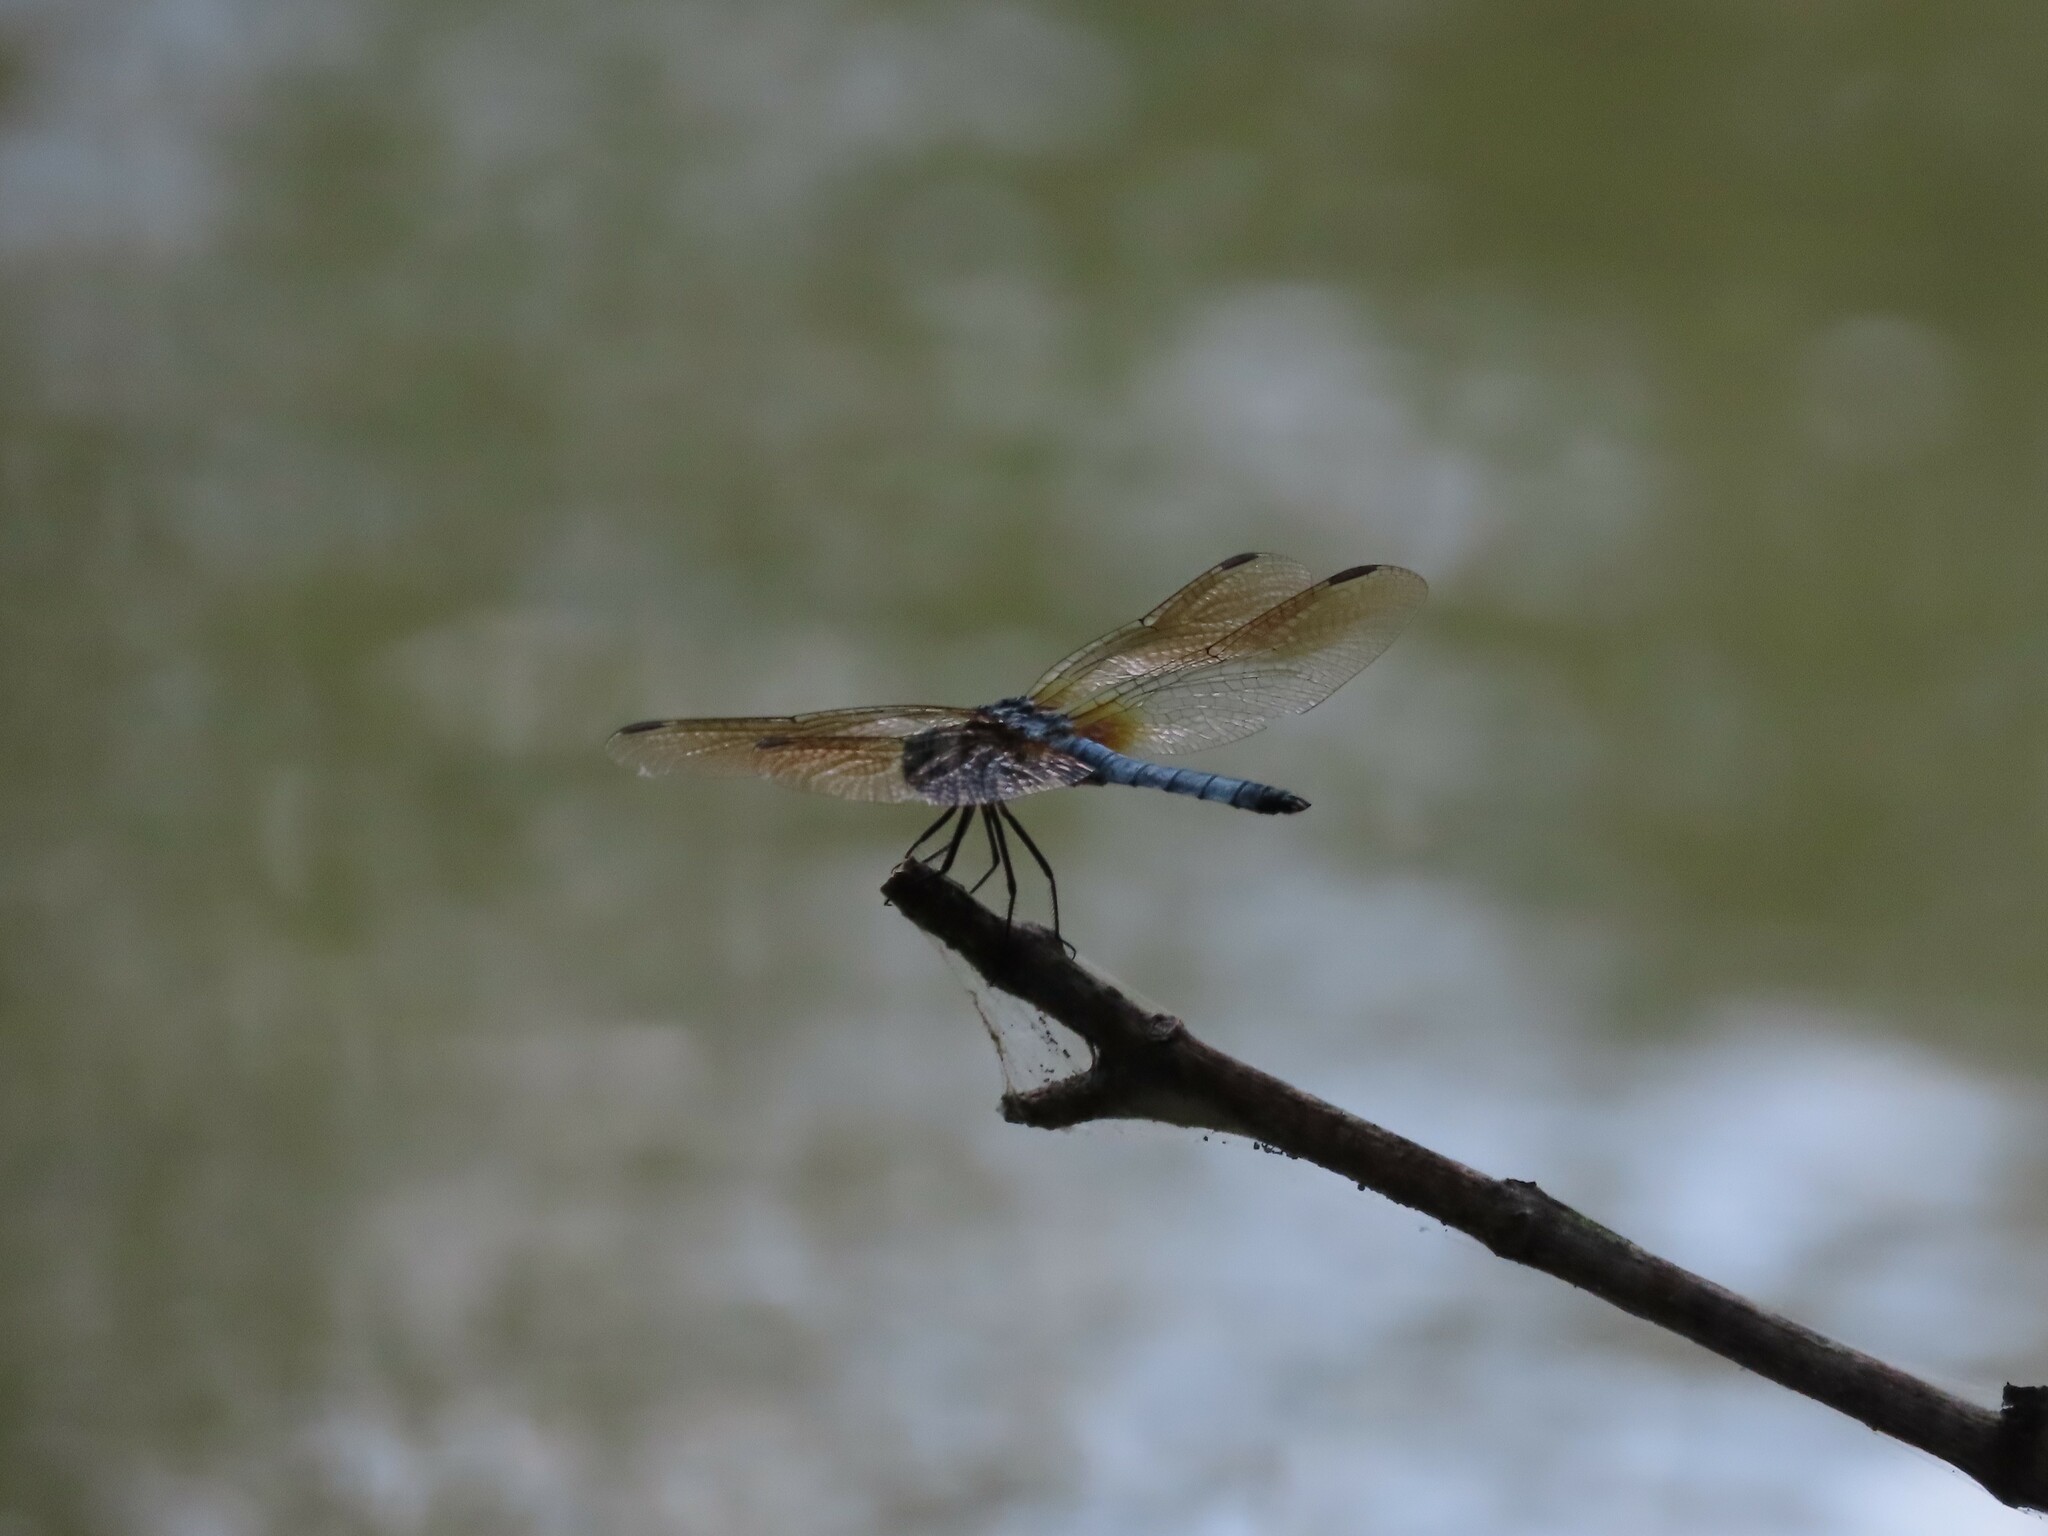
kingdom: Animalia
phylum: Arthropoda
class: Insecta
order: Odonata
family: Libellulidae
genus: Pachydiplax
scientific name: Pachydiplax longipennis
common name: Blue dasher
